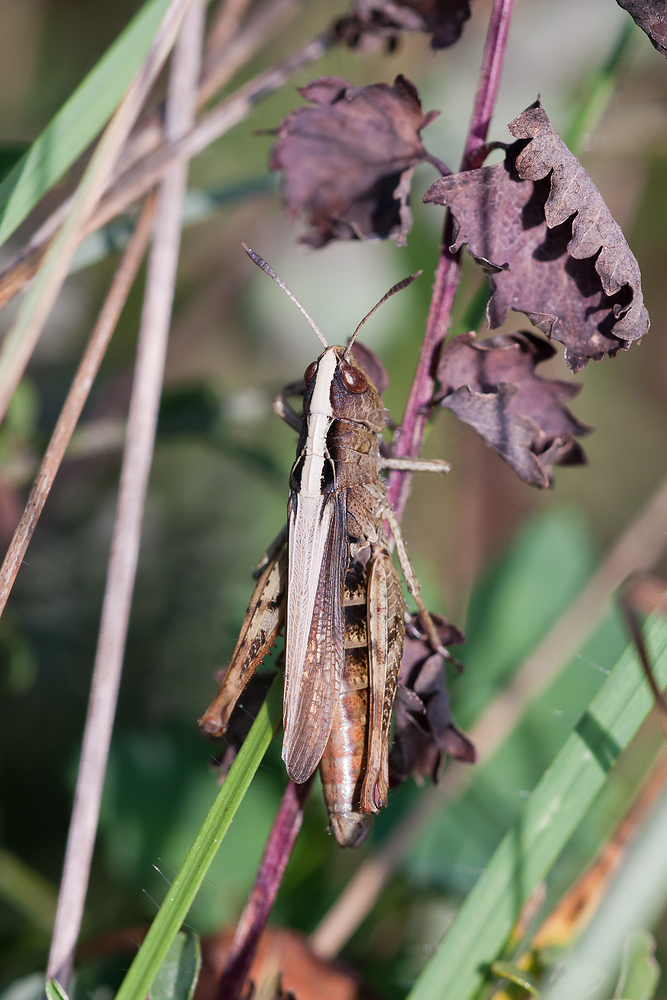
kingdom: Animalia
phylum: Arthropoda
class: Insecta
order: Orthoptera
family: Acrididae
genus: Gomphocerippus
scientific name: Gomphocerippus rufus
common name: Rufous grasshopper
